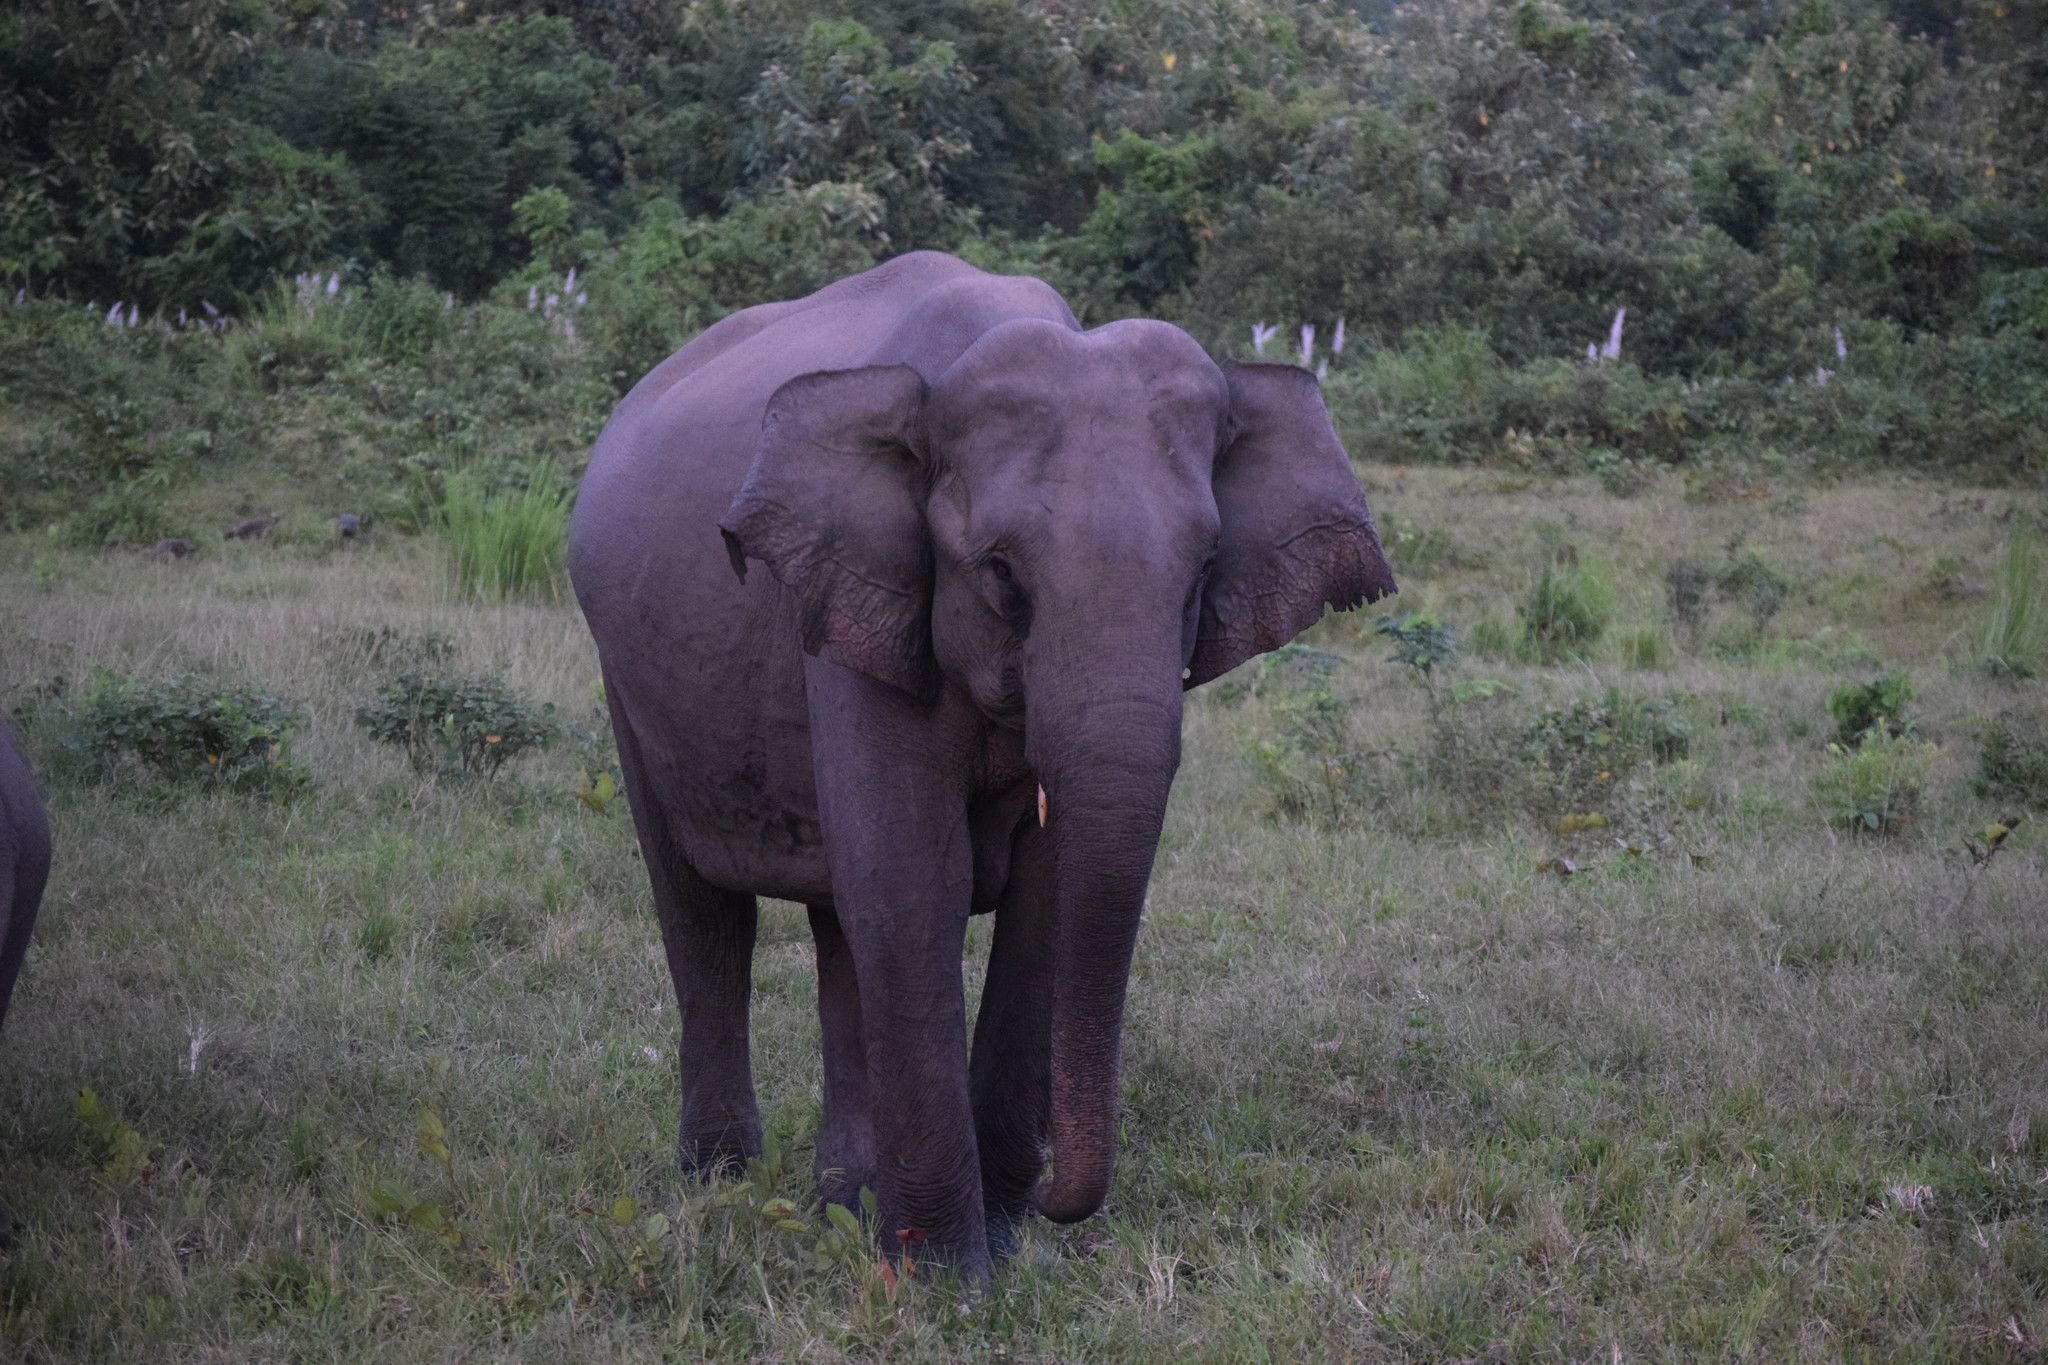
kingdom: Animalia
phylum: Chordata
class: Mammalia
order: Proboscidea
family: Elephantidae
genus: Elephas
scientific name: Elephas maximus
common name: Asian elephant
